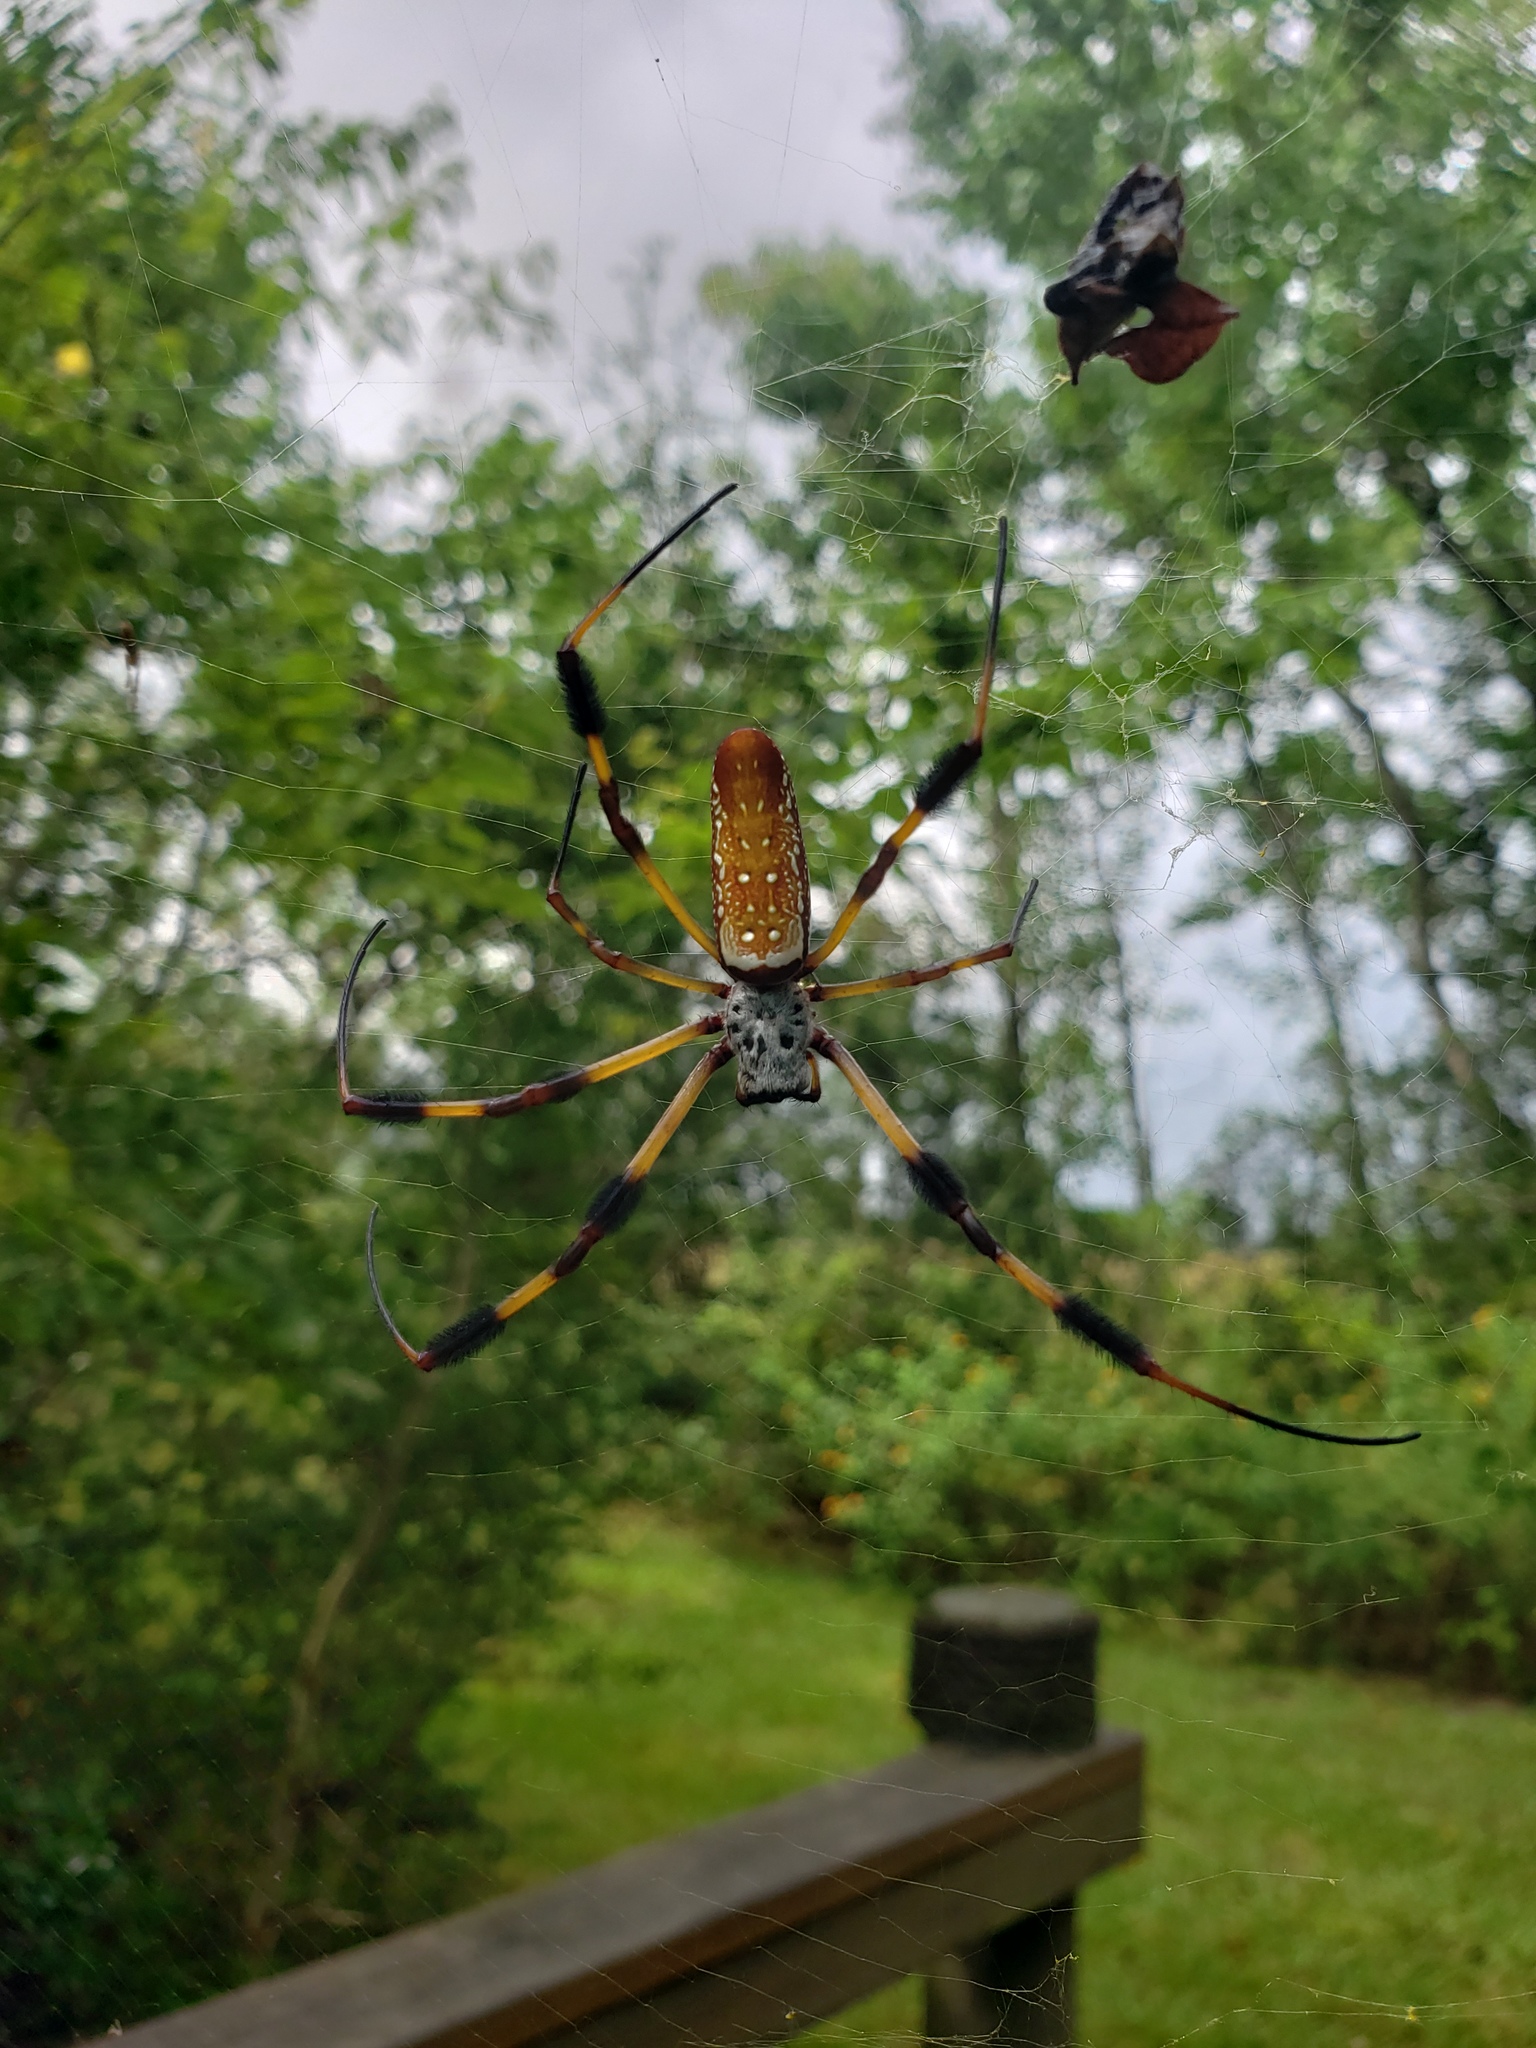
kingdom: Animalia
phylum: Arthropoda
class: Arachnida
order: Araneae
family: Araneidae
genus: Trichonephila
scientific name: Trichonephila clavipes
